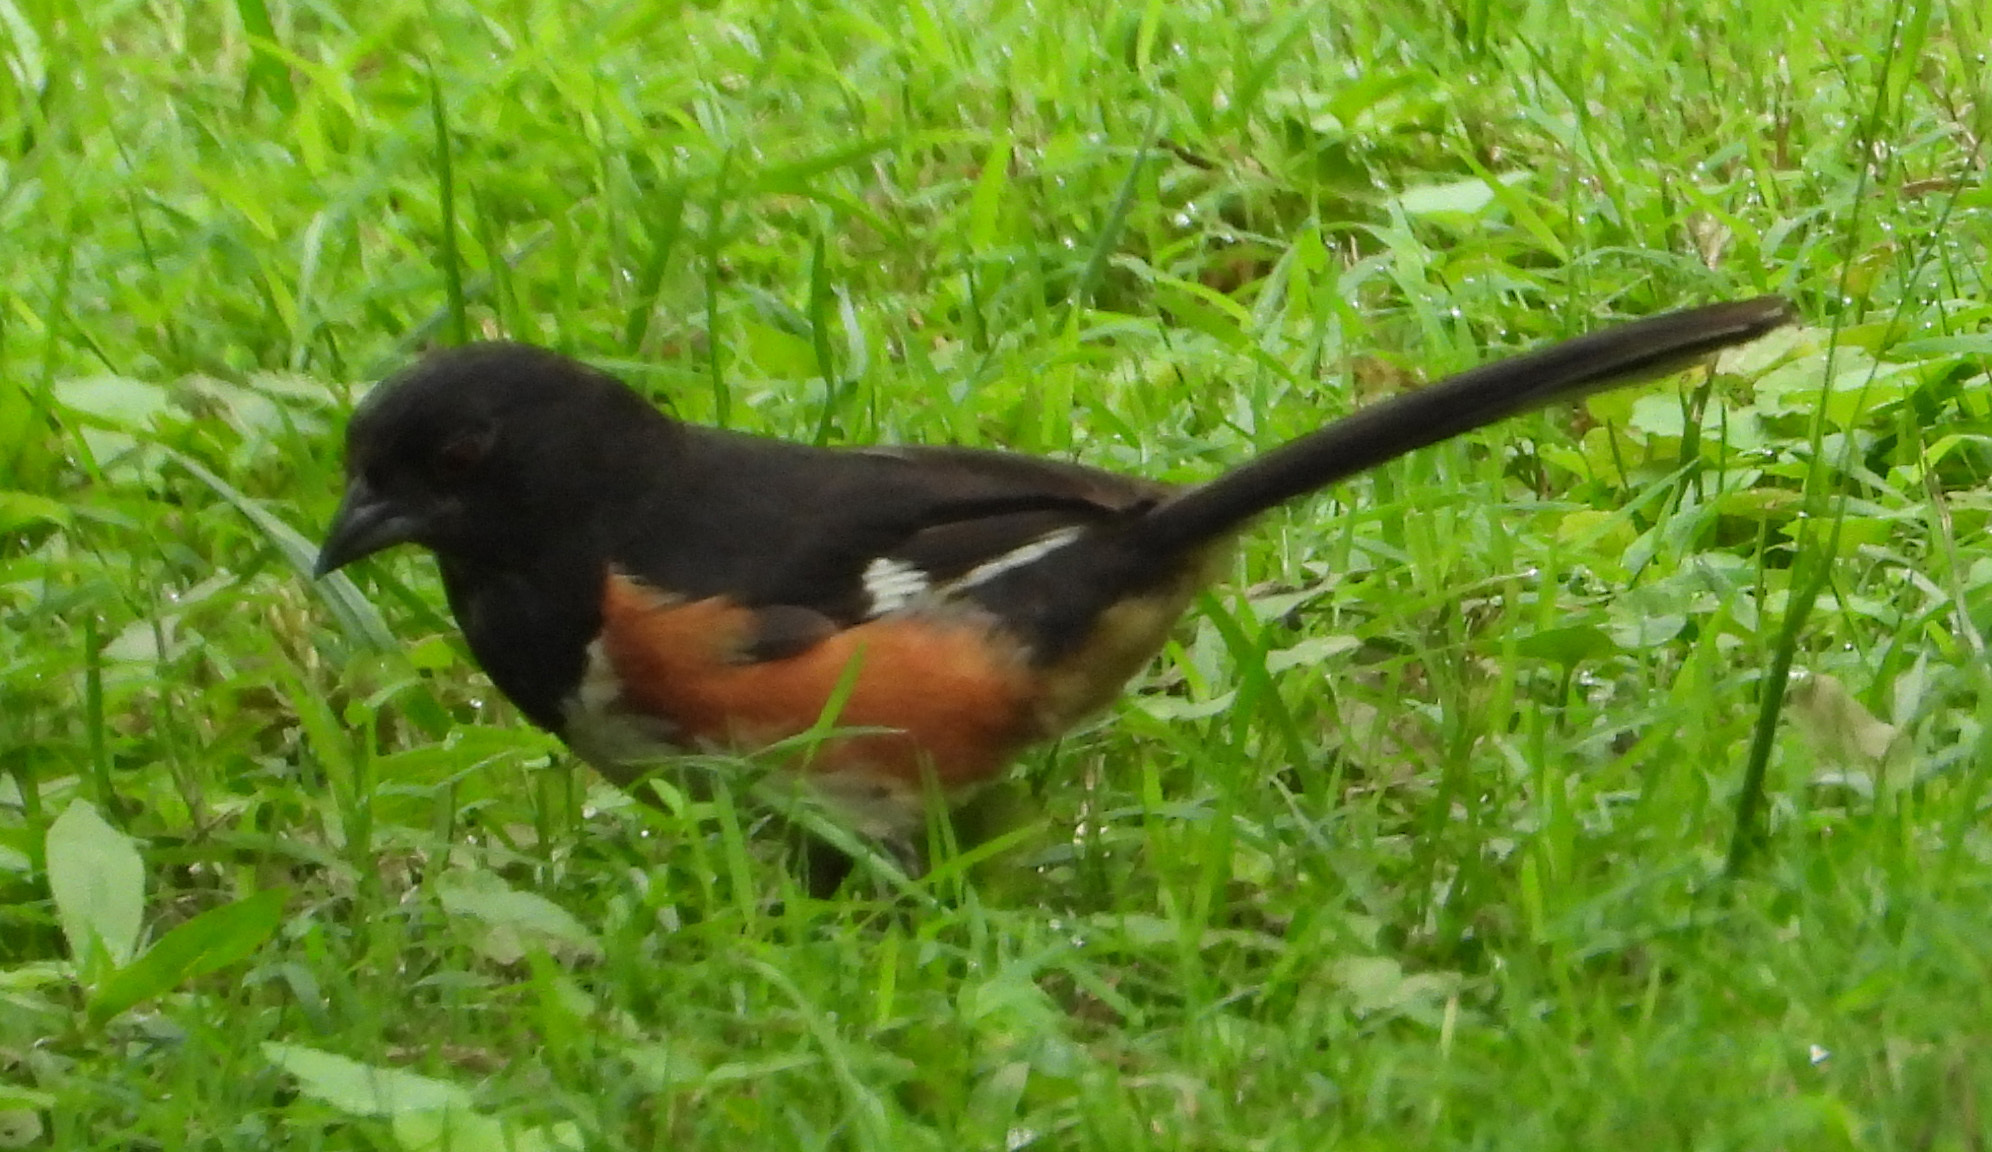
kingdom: Animalia
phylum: Chordata
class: Aves
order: Passeriformes
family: Passerellidae
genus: Pipilo
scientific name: Pipilo erythrophthalmus
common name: Eastern towhee
